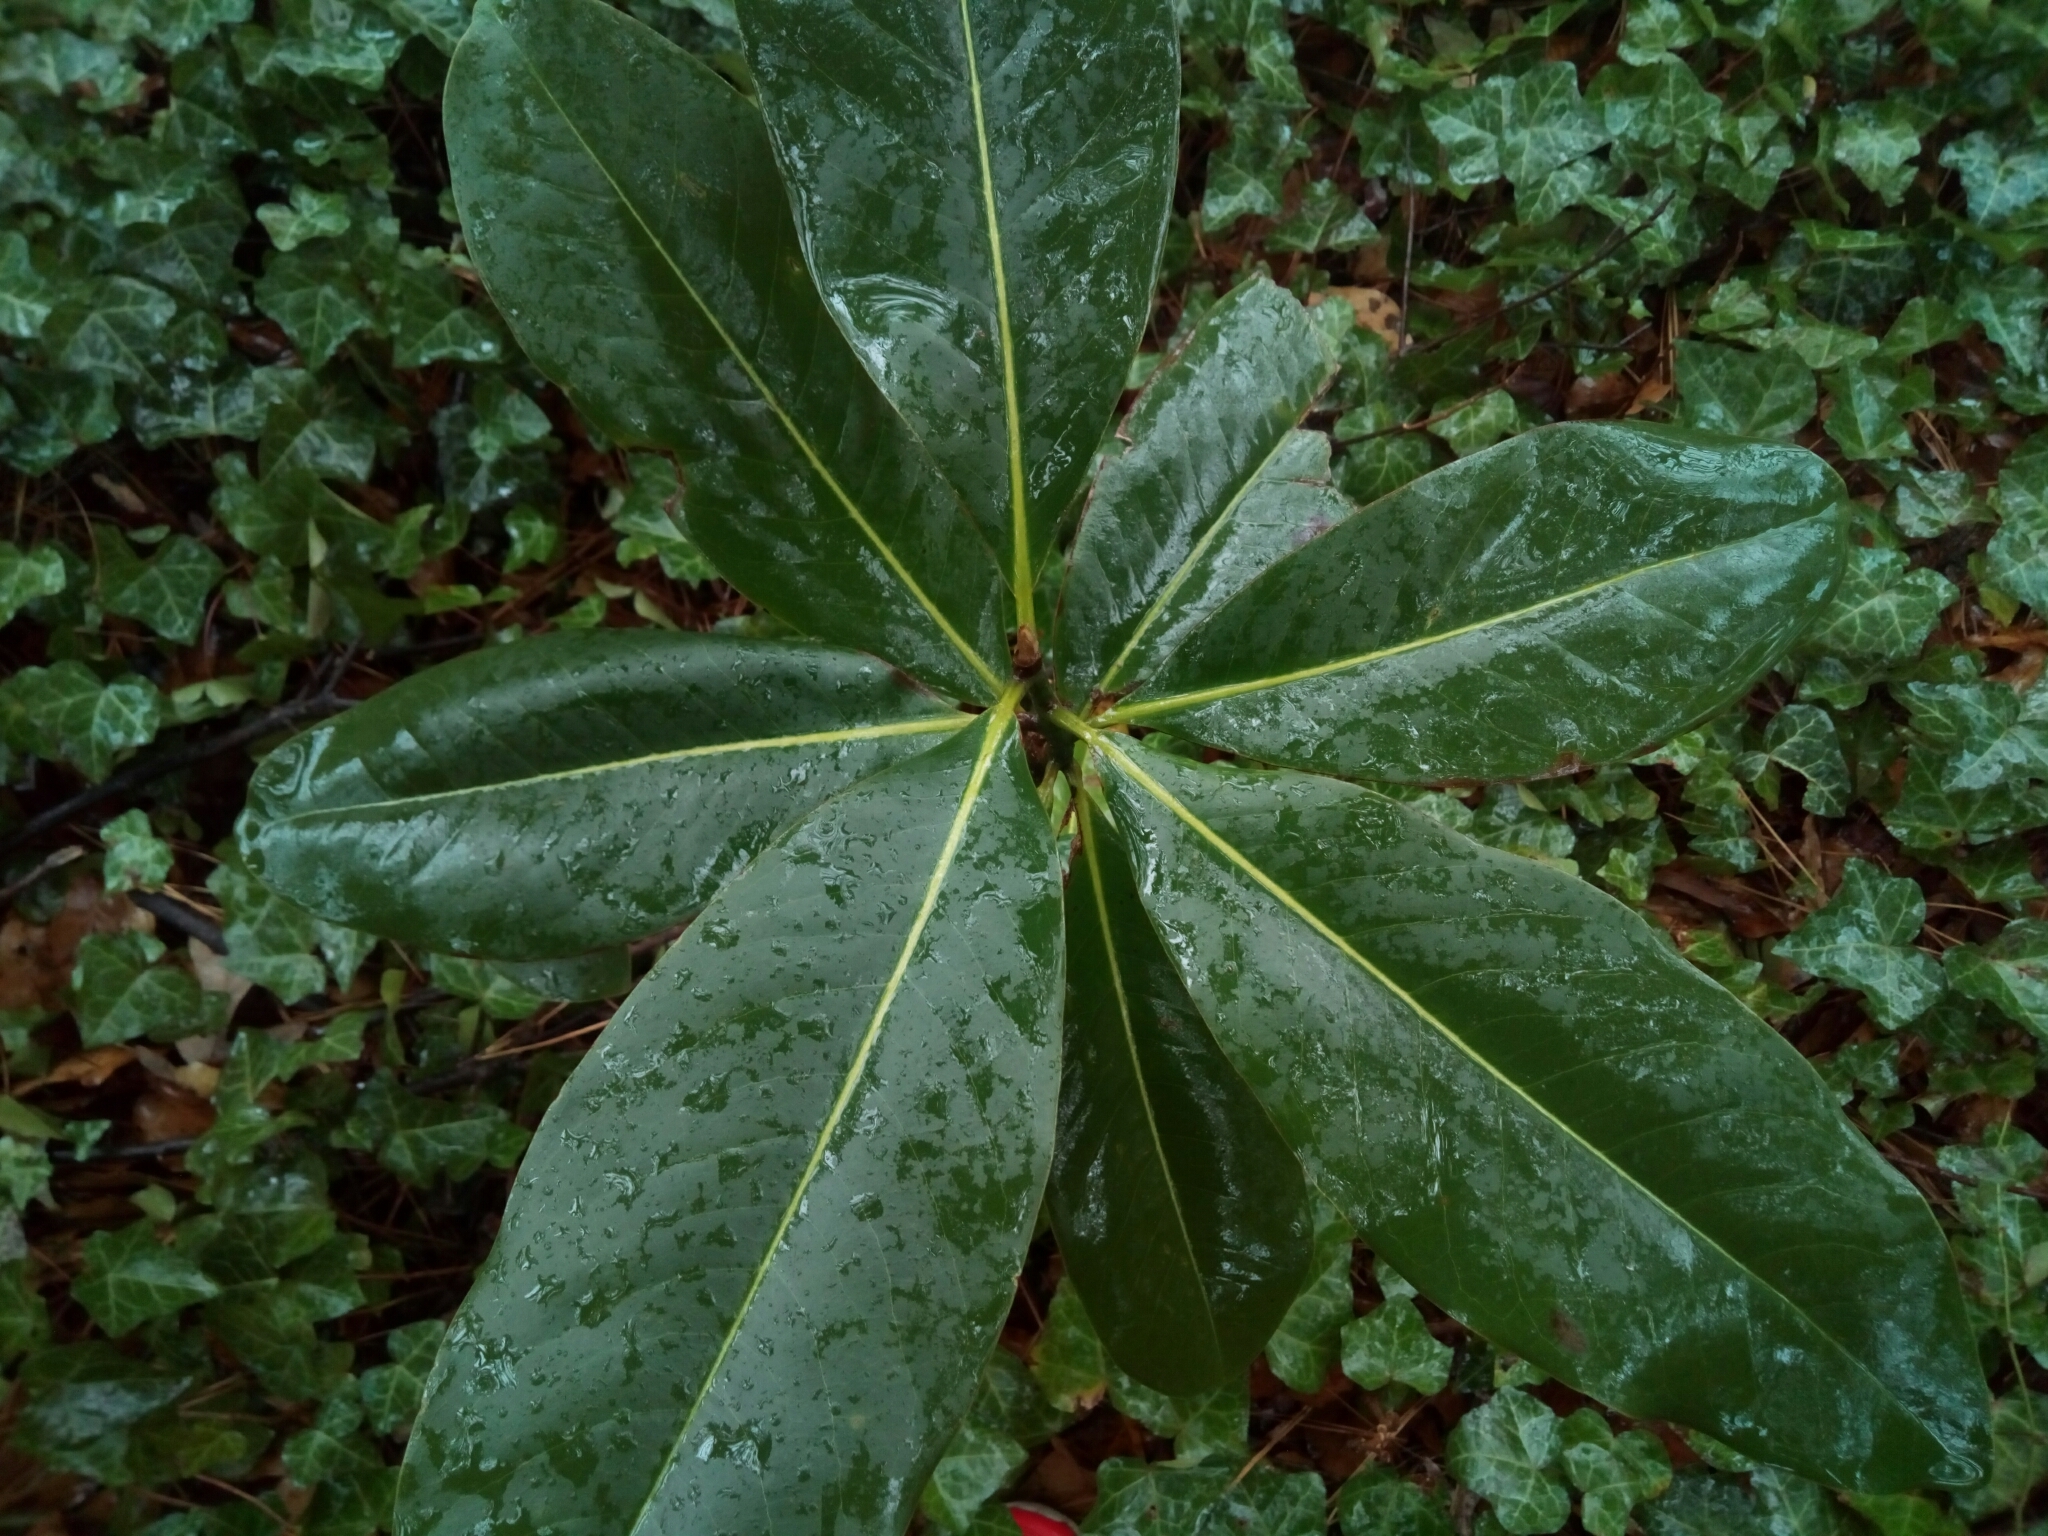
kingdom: Plantae
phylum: Tracheophyta
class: Magnoliopsida
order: Magnoliales
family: Magnoliaceae
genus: Magnolia
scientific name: Magnolia grandiflora
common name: Southern magnolia
